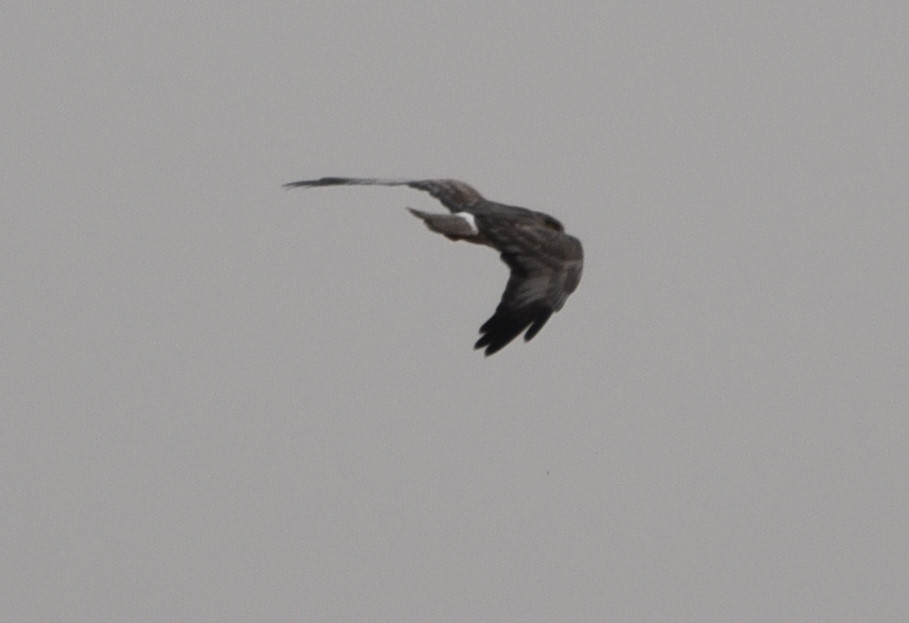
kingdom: Animalia
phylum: Chordata
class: Aves
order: Accipitriformes
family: Accipitridae
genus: Circus
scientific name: Circus cyaneus
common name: Hen harrier
